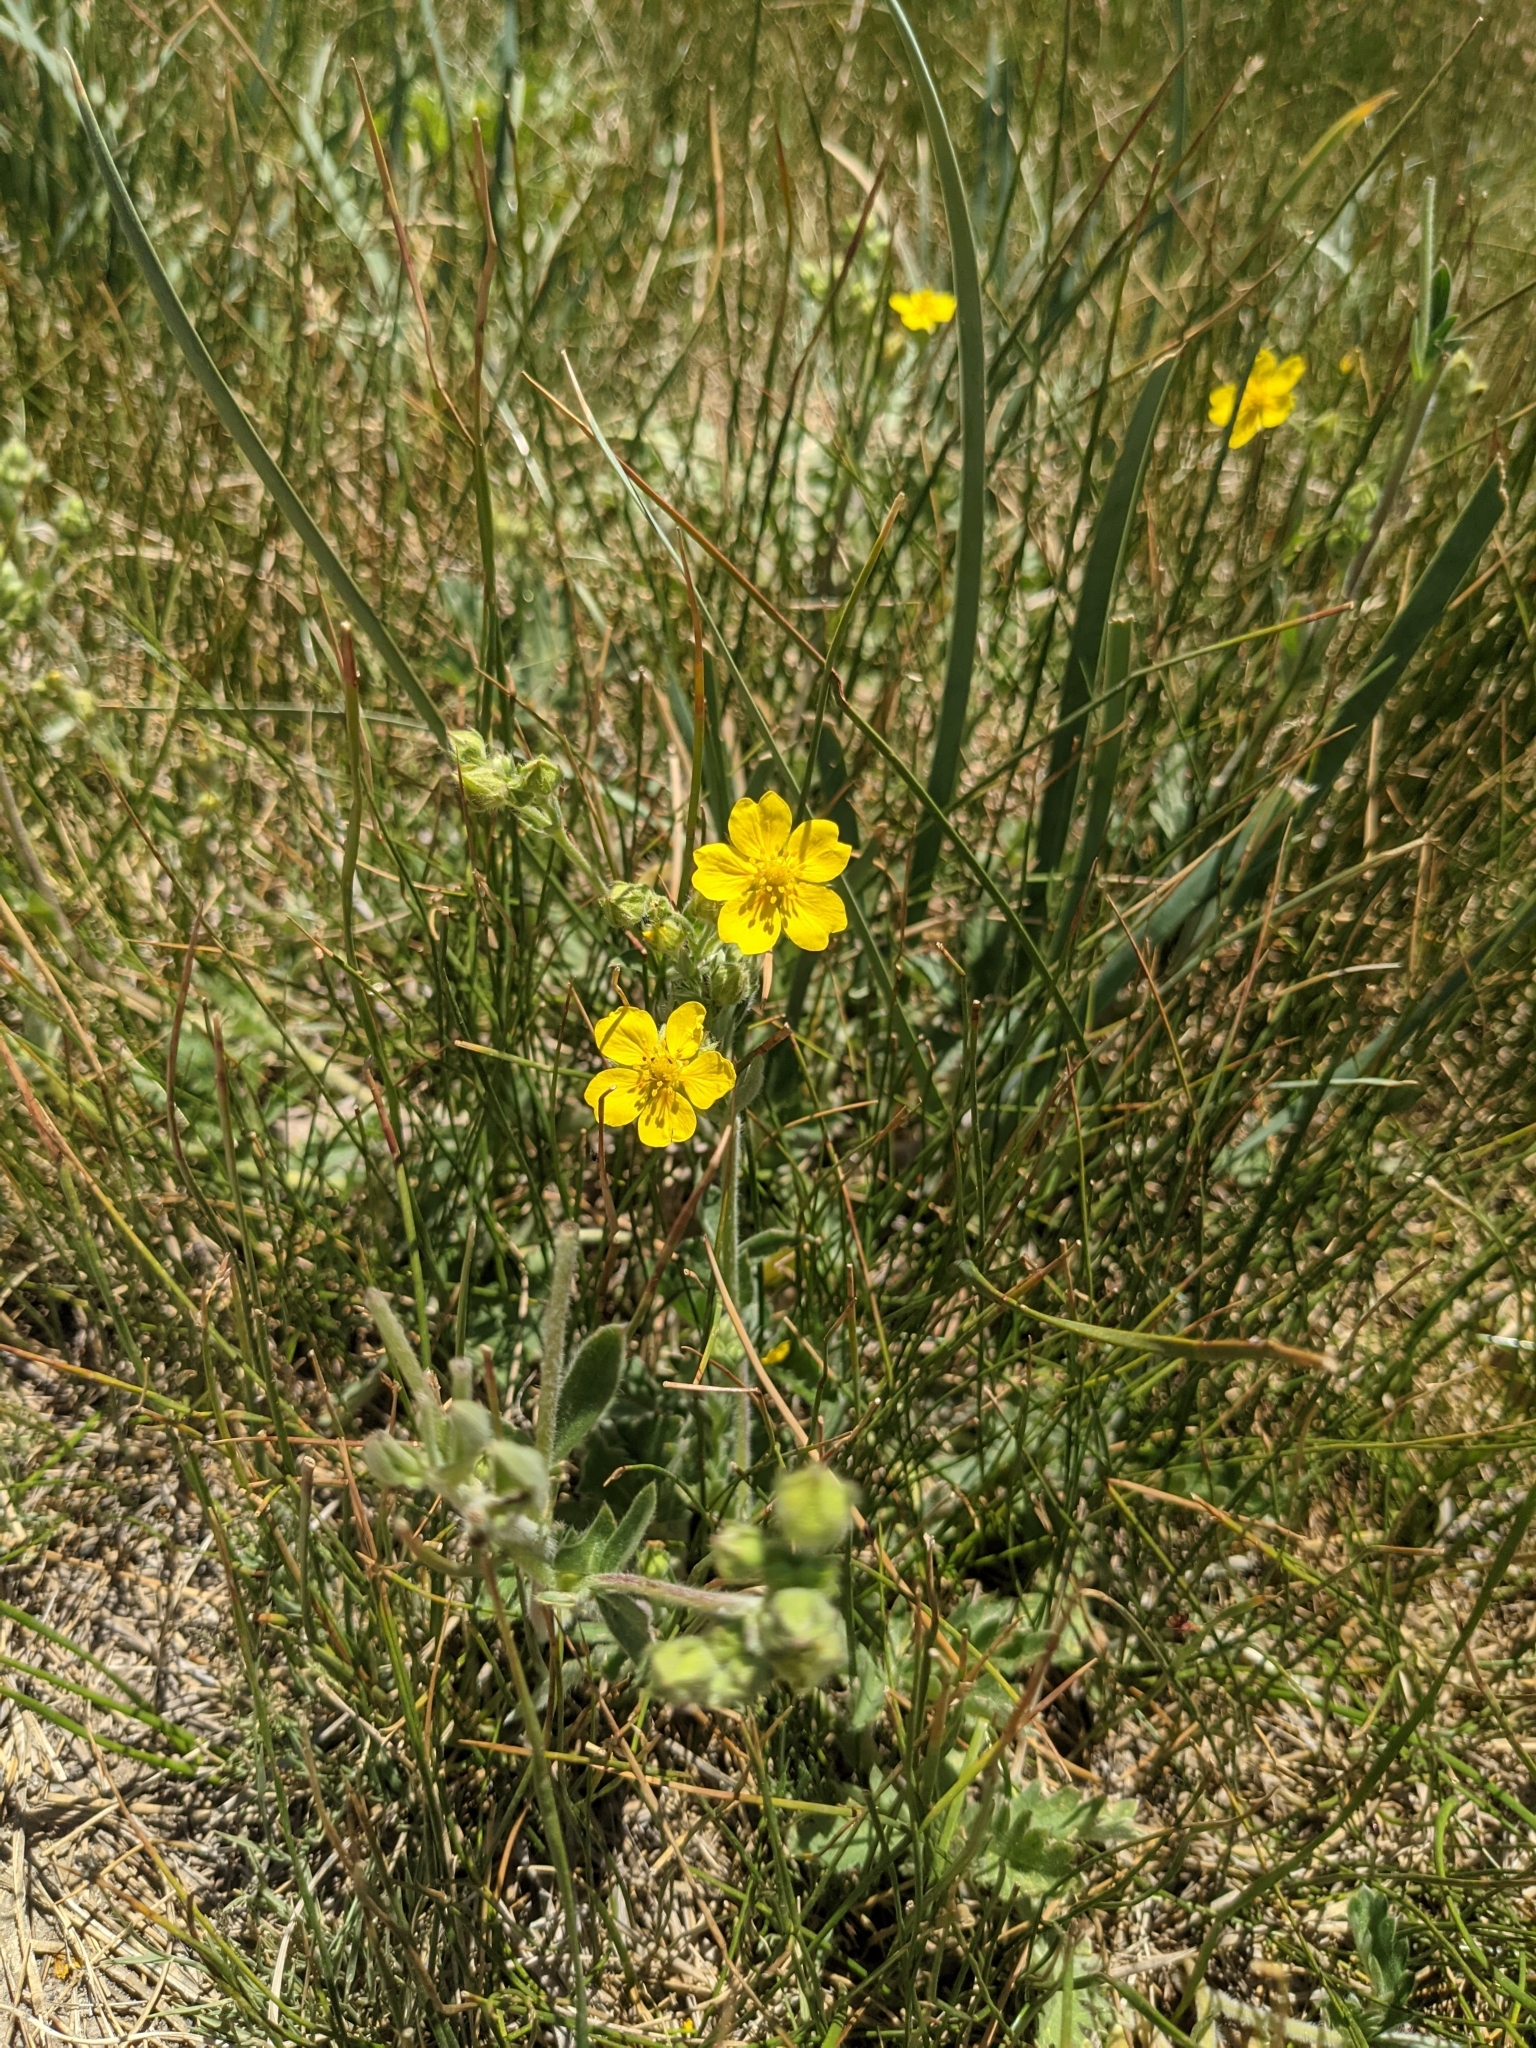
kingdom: Plantae
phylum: Tracheophyta
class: Magnoliopsida
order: Rosales
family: Rosaceae
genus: Potentilla
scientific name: Potentilla gracilis
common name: Graceful cinquefoil
